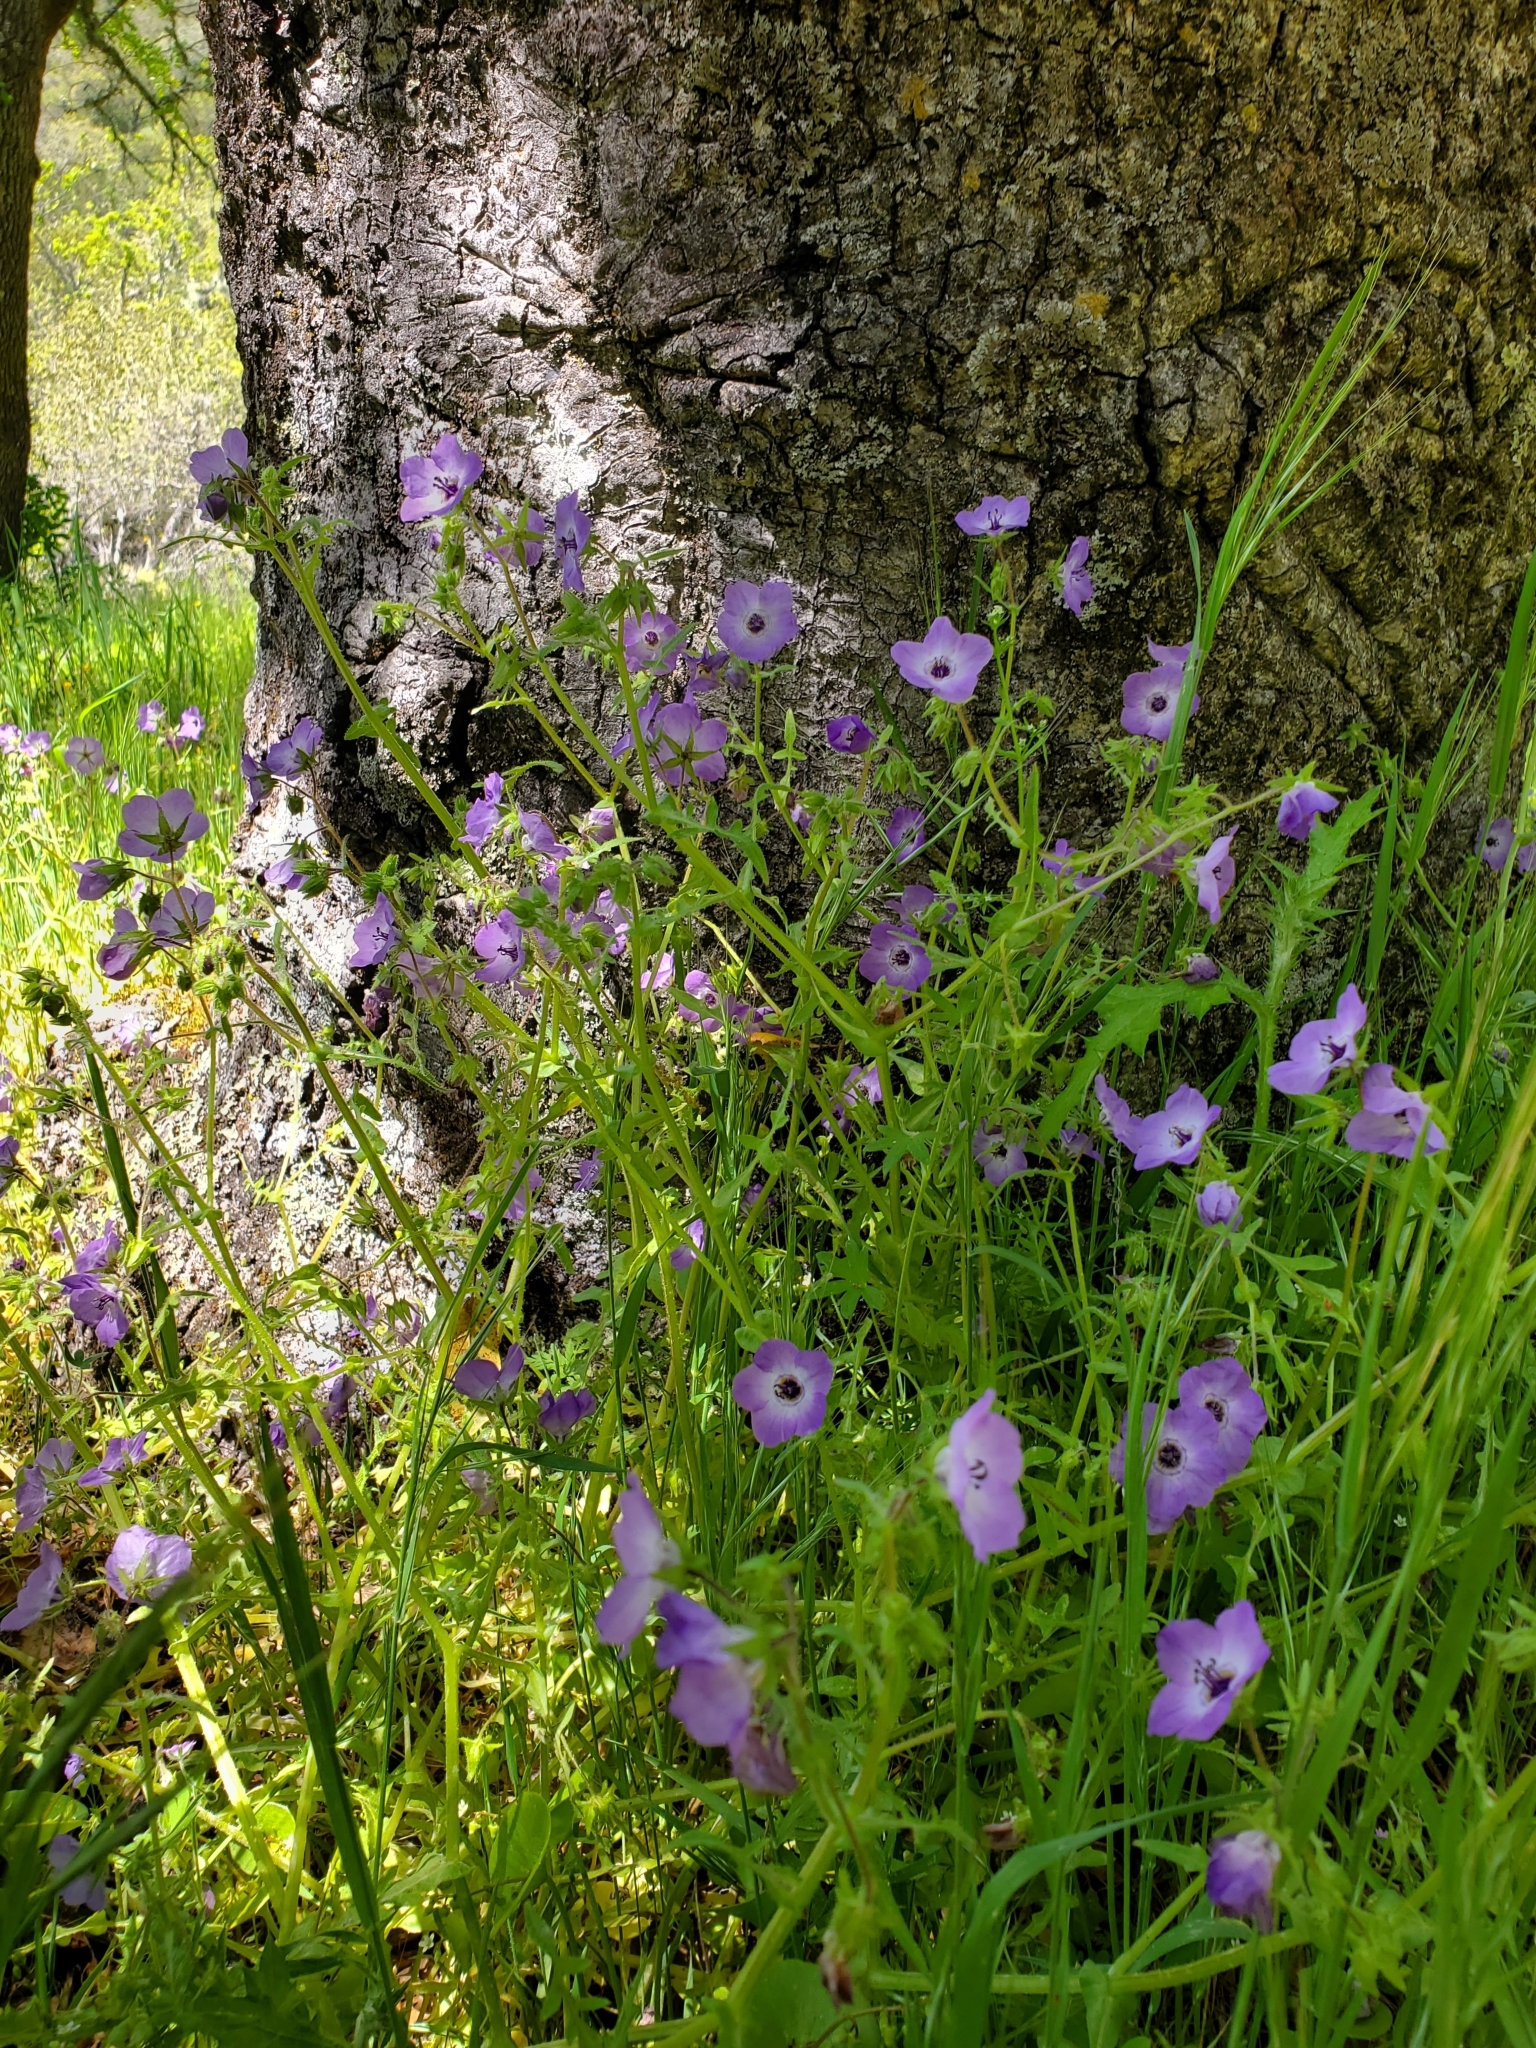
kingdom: Plantae
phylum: Tracheophyta
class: Magnoliopsida
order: Boraginales
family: Hydrophyllaceae
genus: Pholistoma
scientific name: Pholistoma auritum
